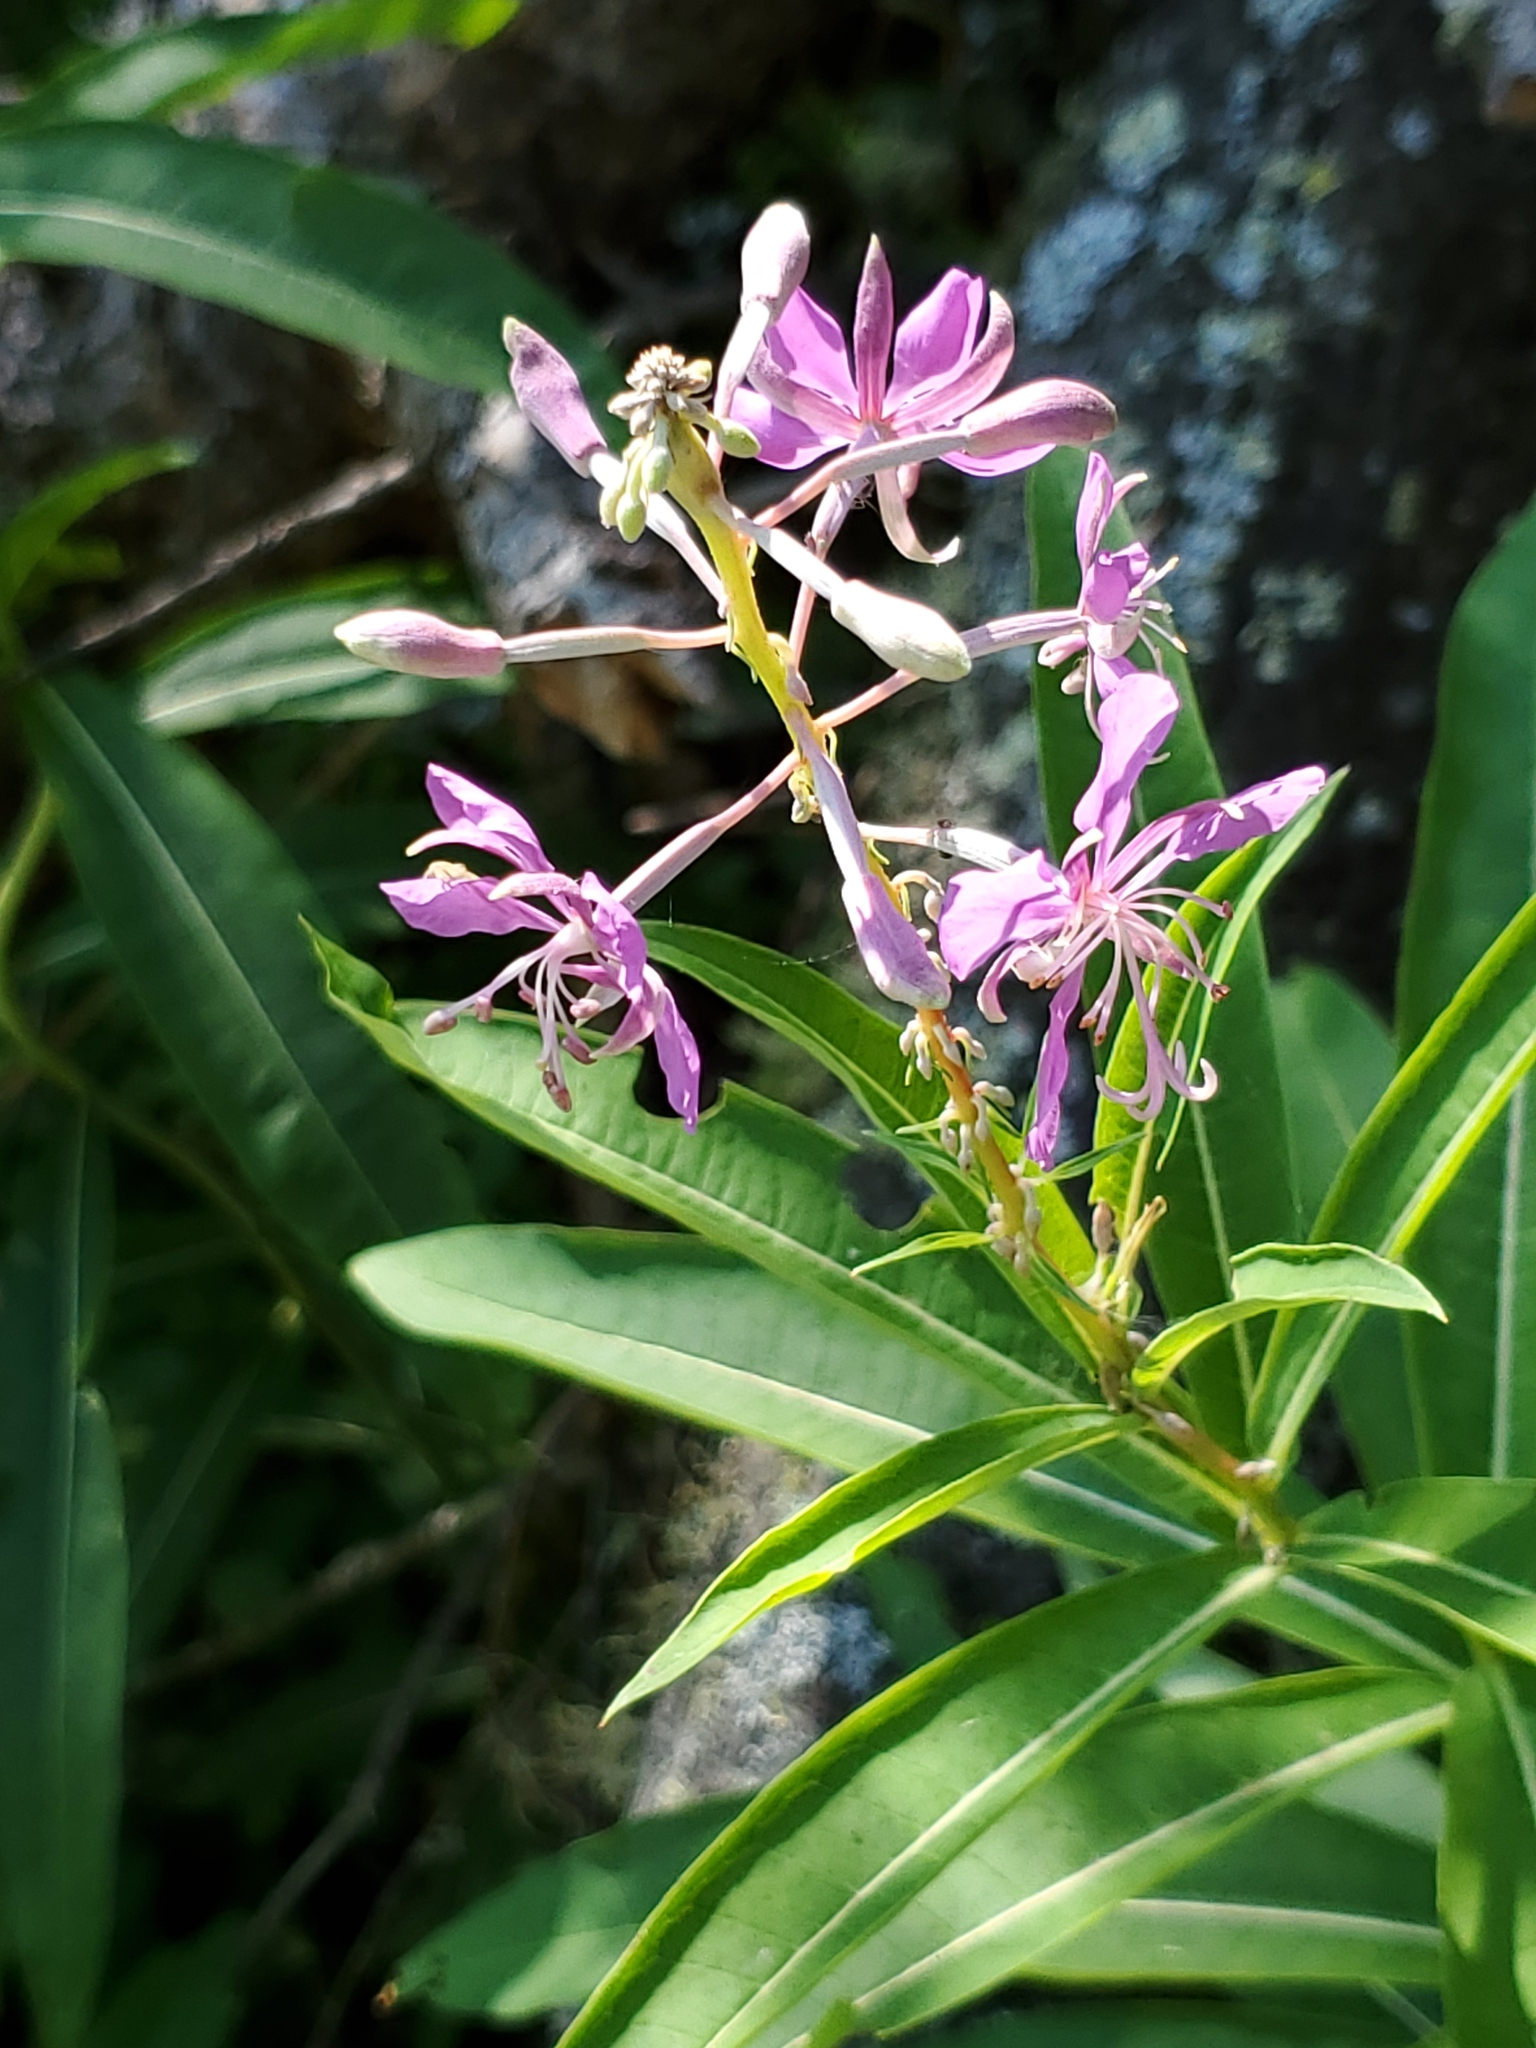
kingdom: Plantae
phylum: Tracheophyta
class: Magnoliopsida
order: Myrtales
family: Onagraceae
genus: Chamaenerion
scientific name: Chamaenerion angustifolium
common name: Fireweed
